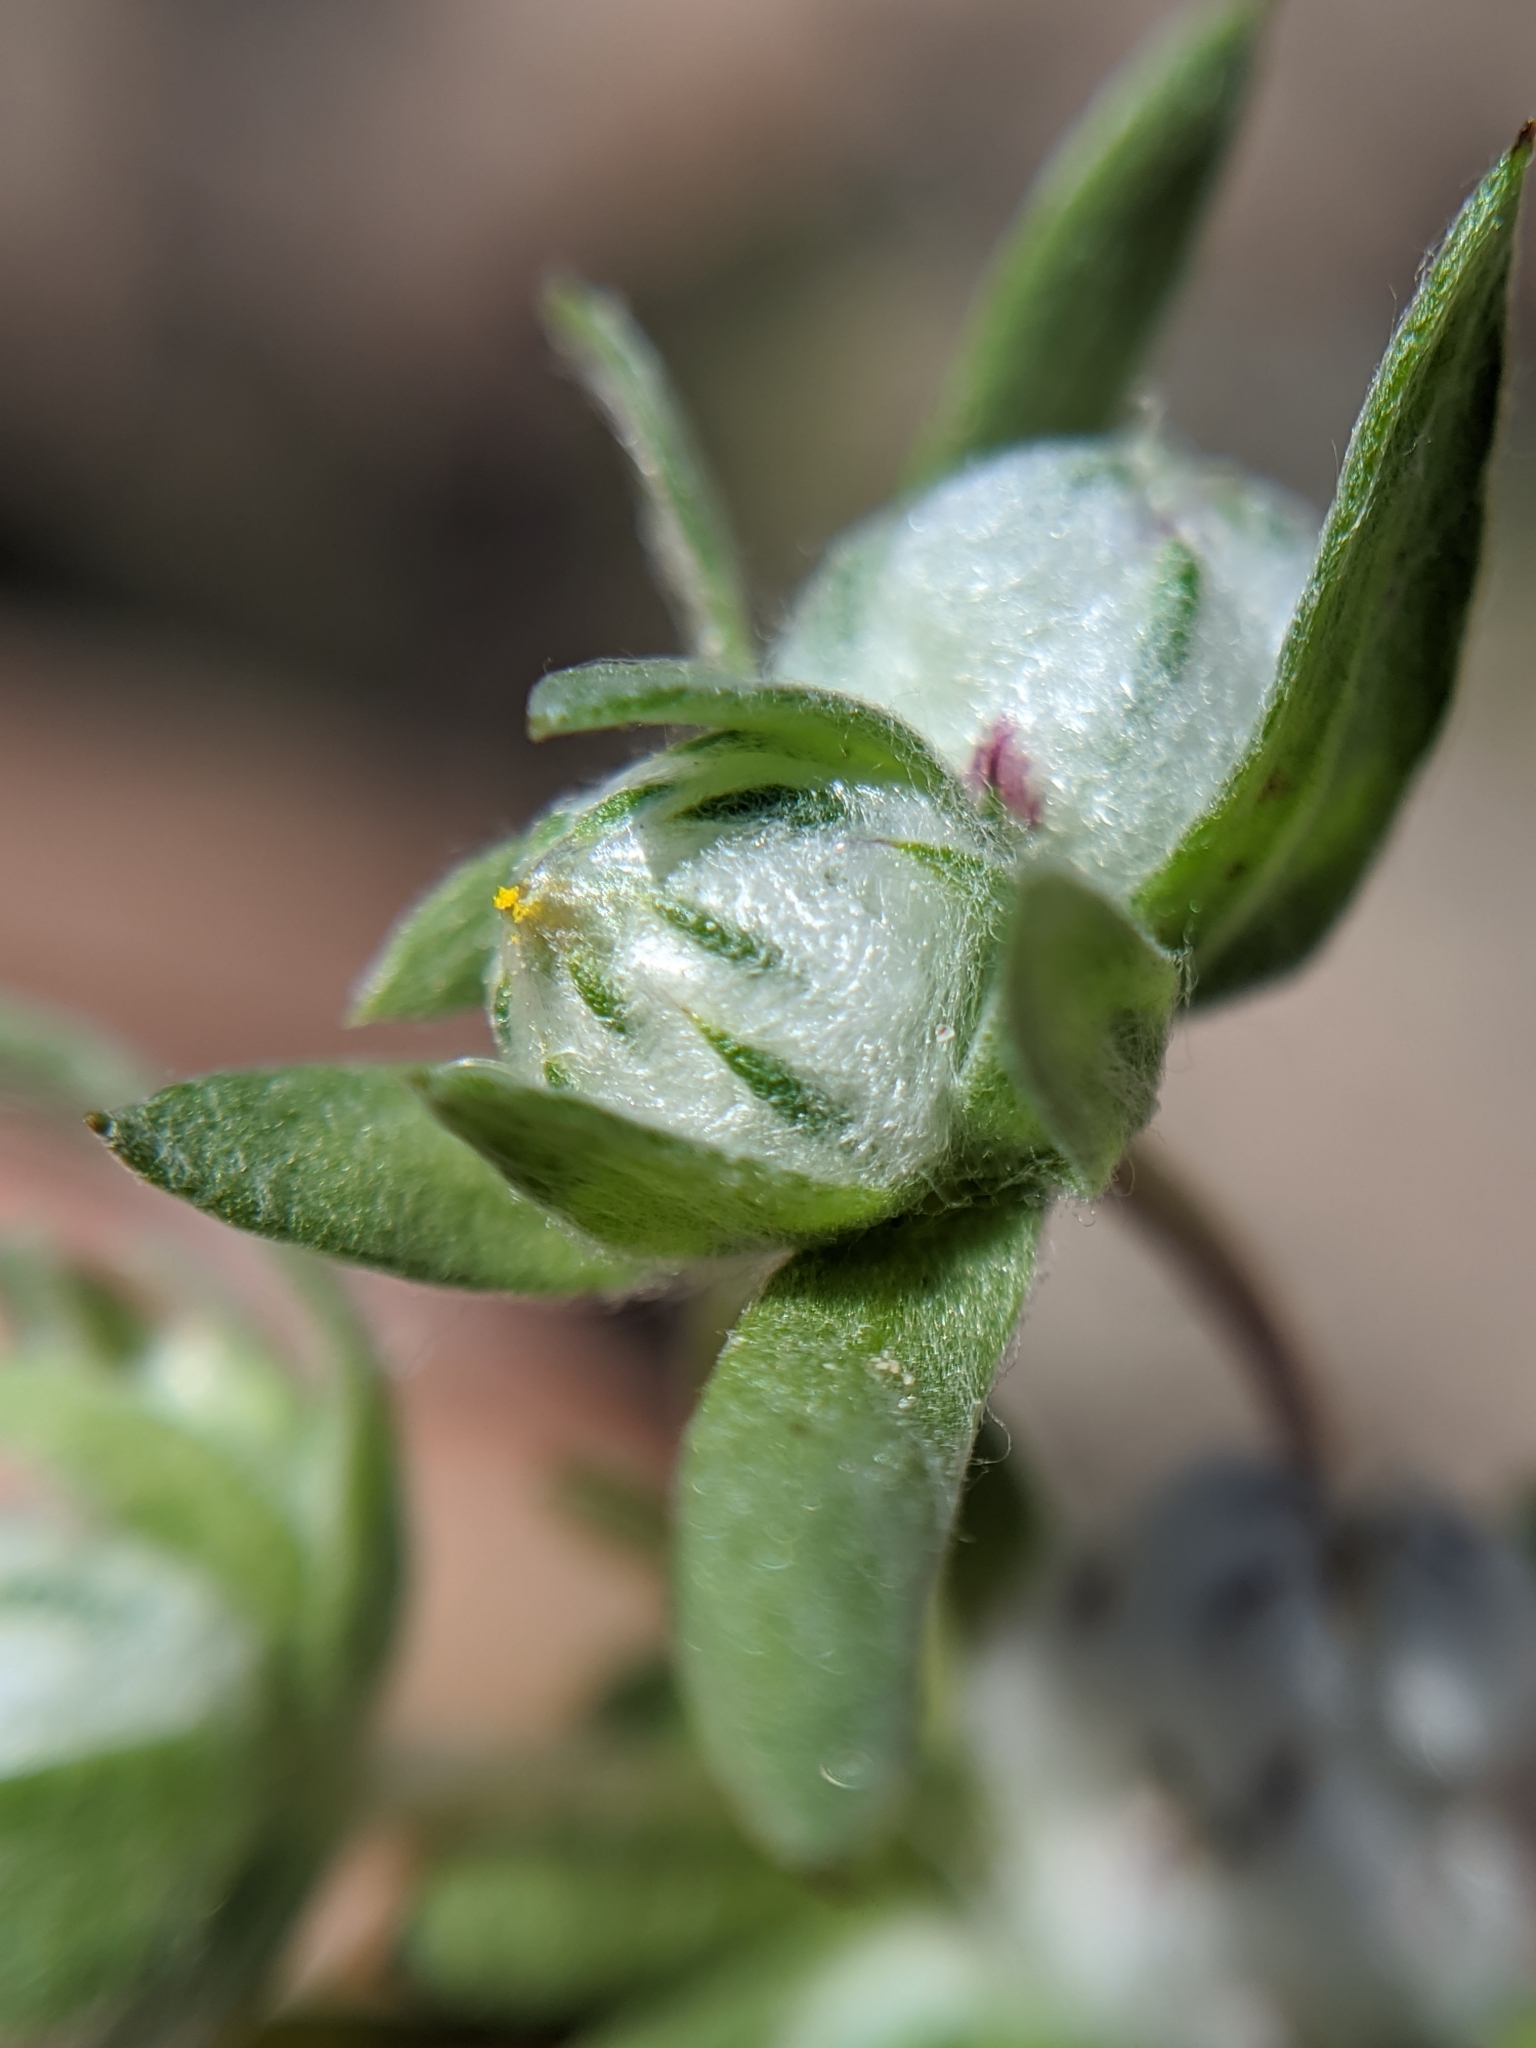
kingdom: Plantae
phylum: Tracheophyta
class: Magnoliopsida
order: Asterales
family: Asteraceae
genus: Stylocline
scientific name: Stylocline micropoides
